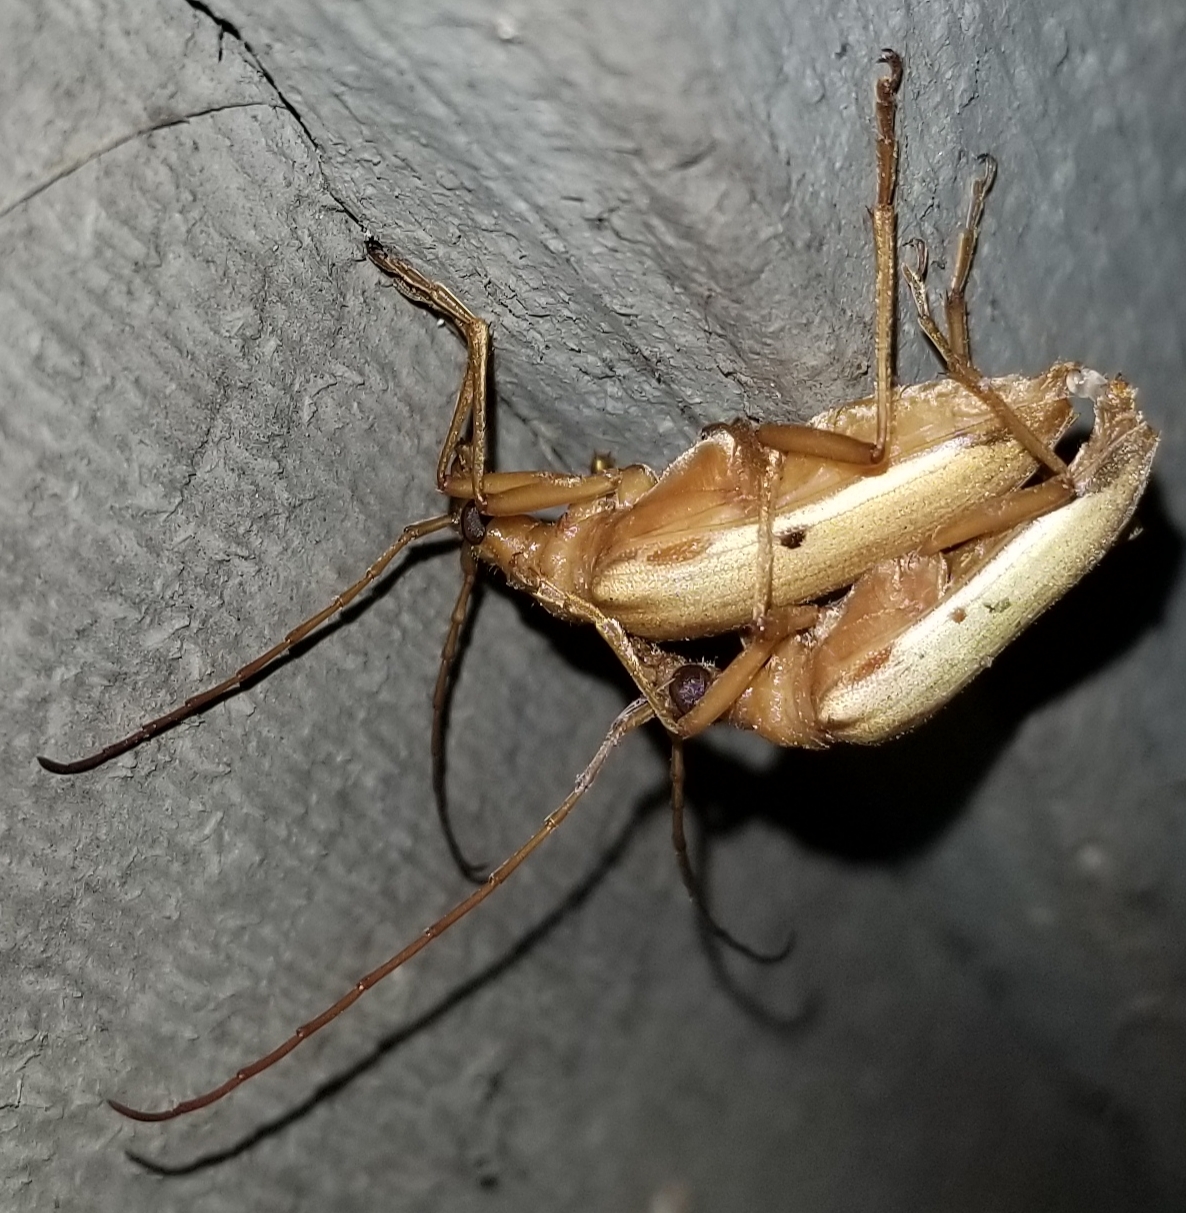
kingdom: Animalia
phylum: Arthropoda
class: Insecta
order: Coleoptera
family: Cerambycidae
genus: Centrodera
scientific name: Centrodera spurca
